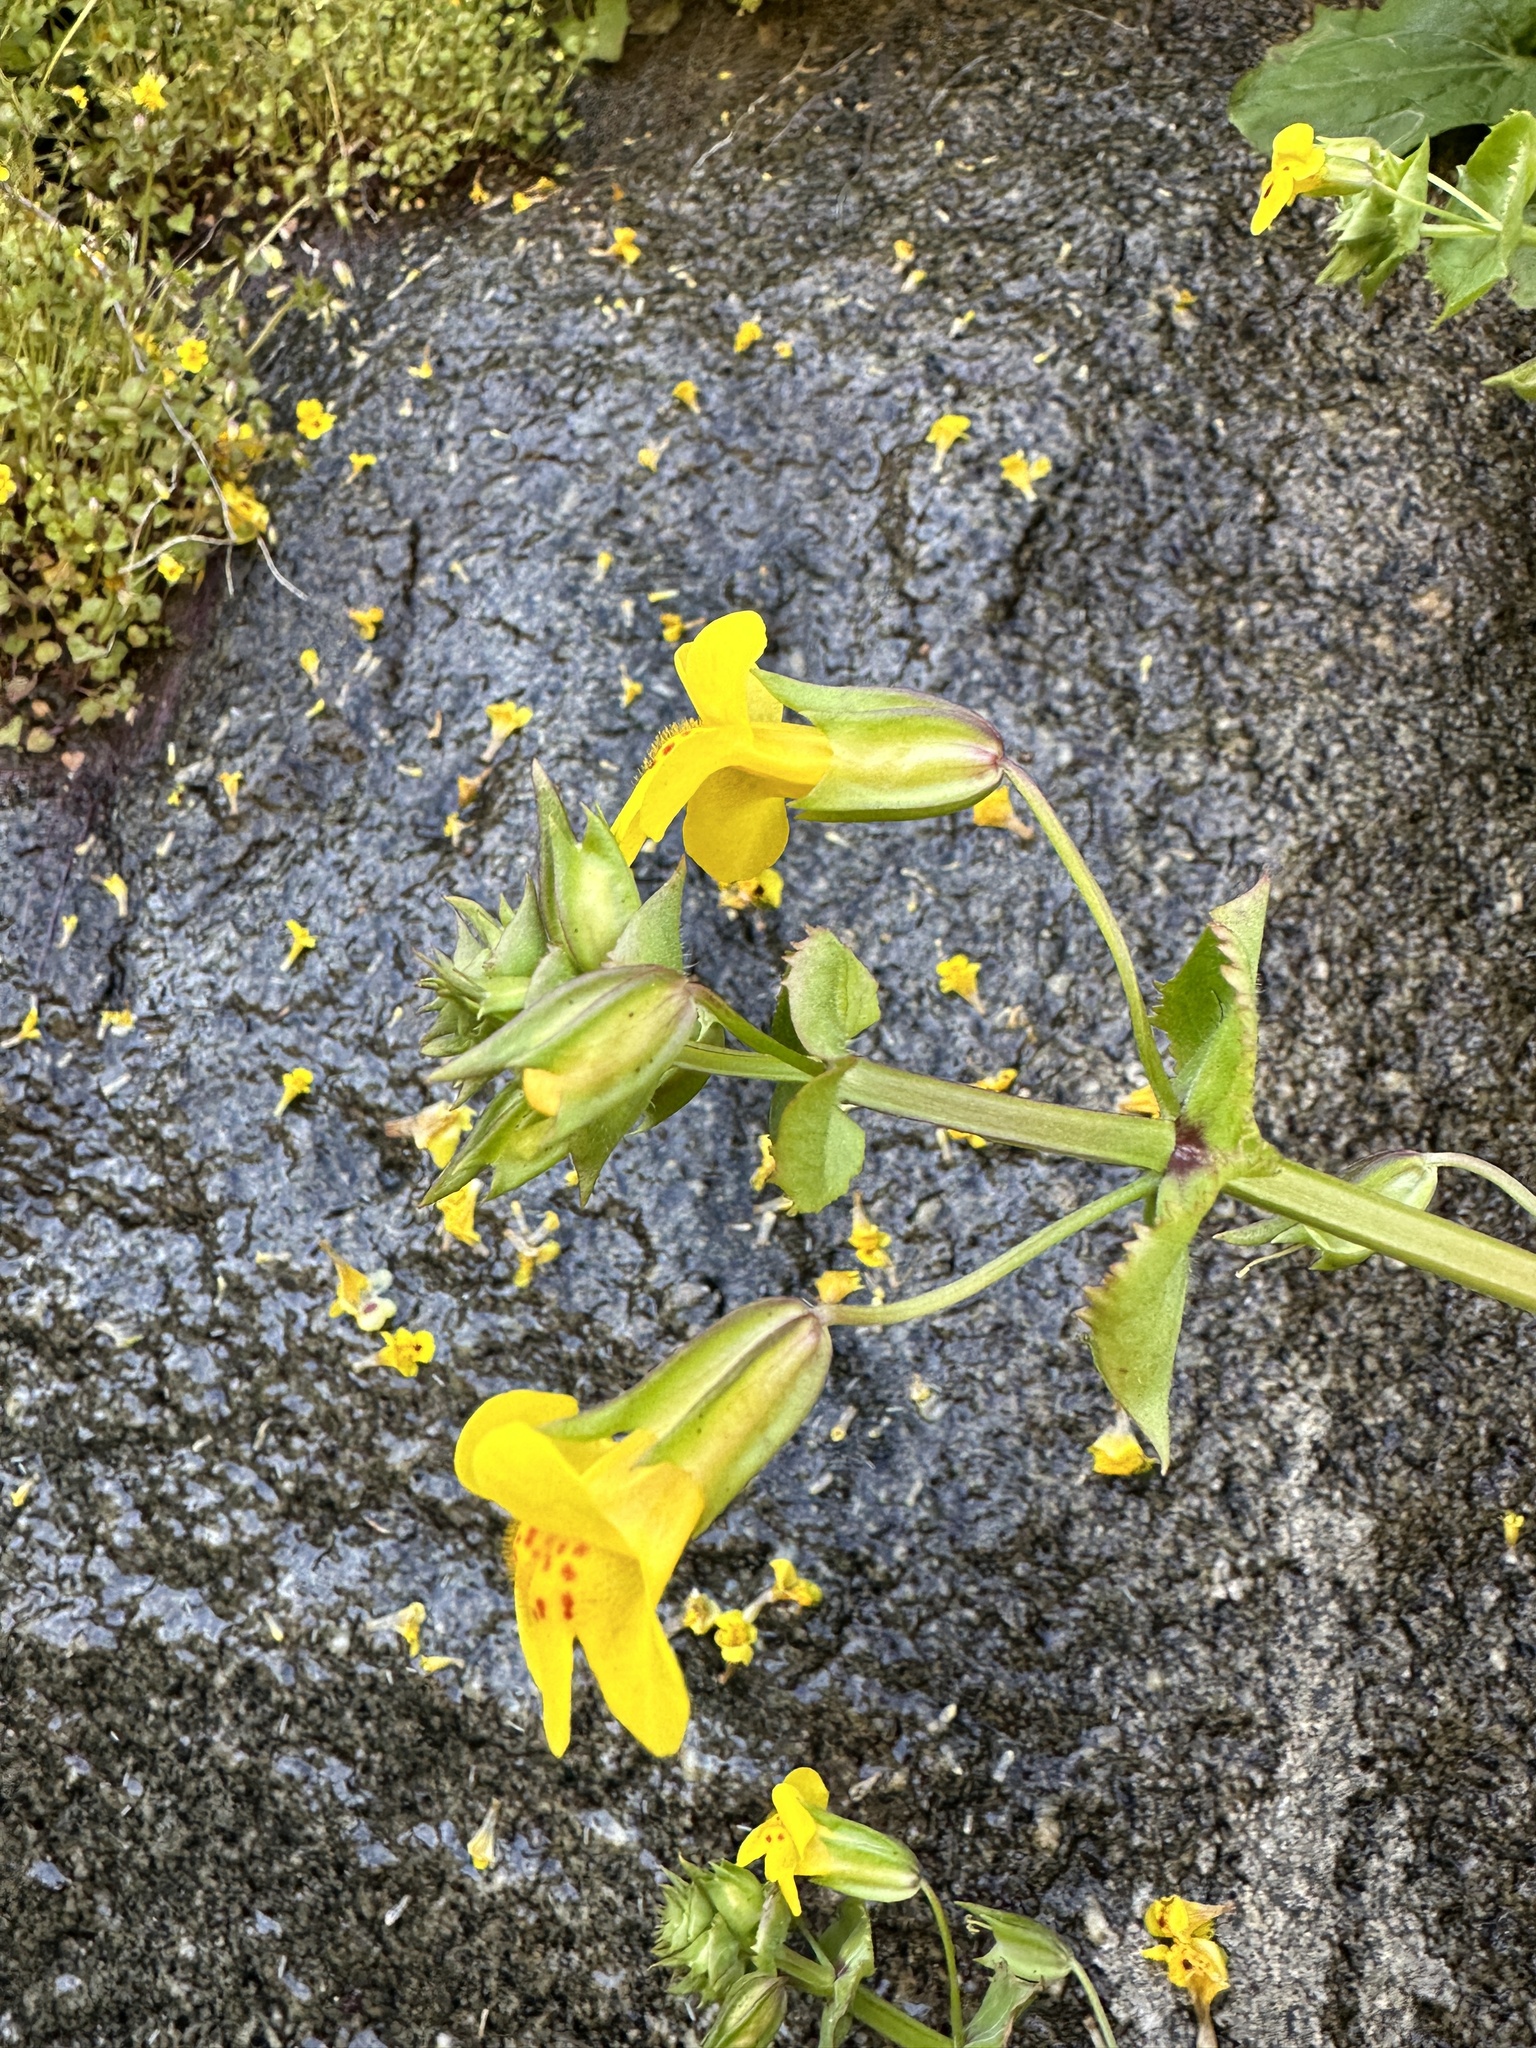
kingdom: Plantae
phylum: Tracheophyta
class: Magnoliopsida
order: Lamiales
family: Phrymaceae
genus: Erythranthe
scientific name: Erythranthe nasuta
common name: Sooke monkeyflower
